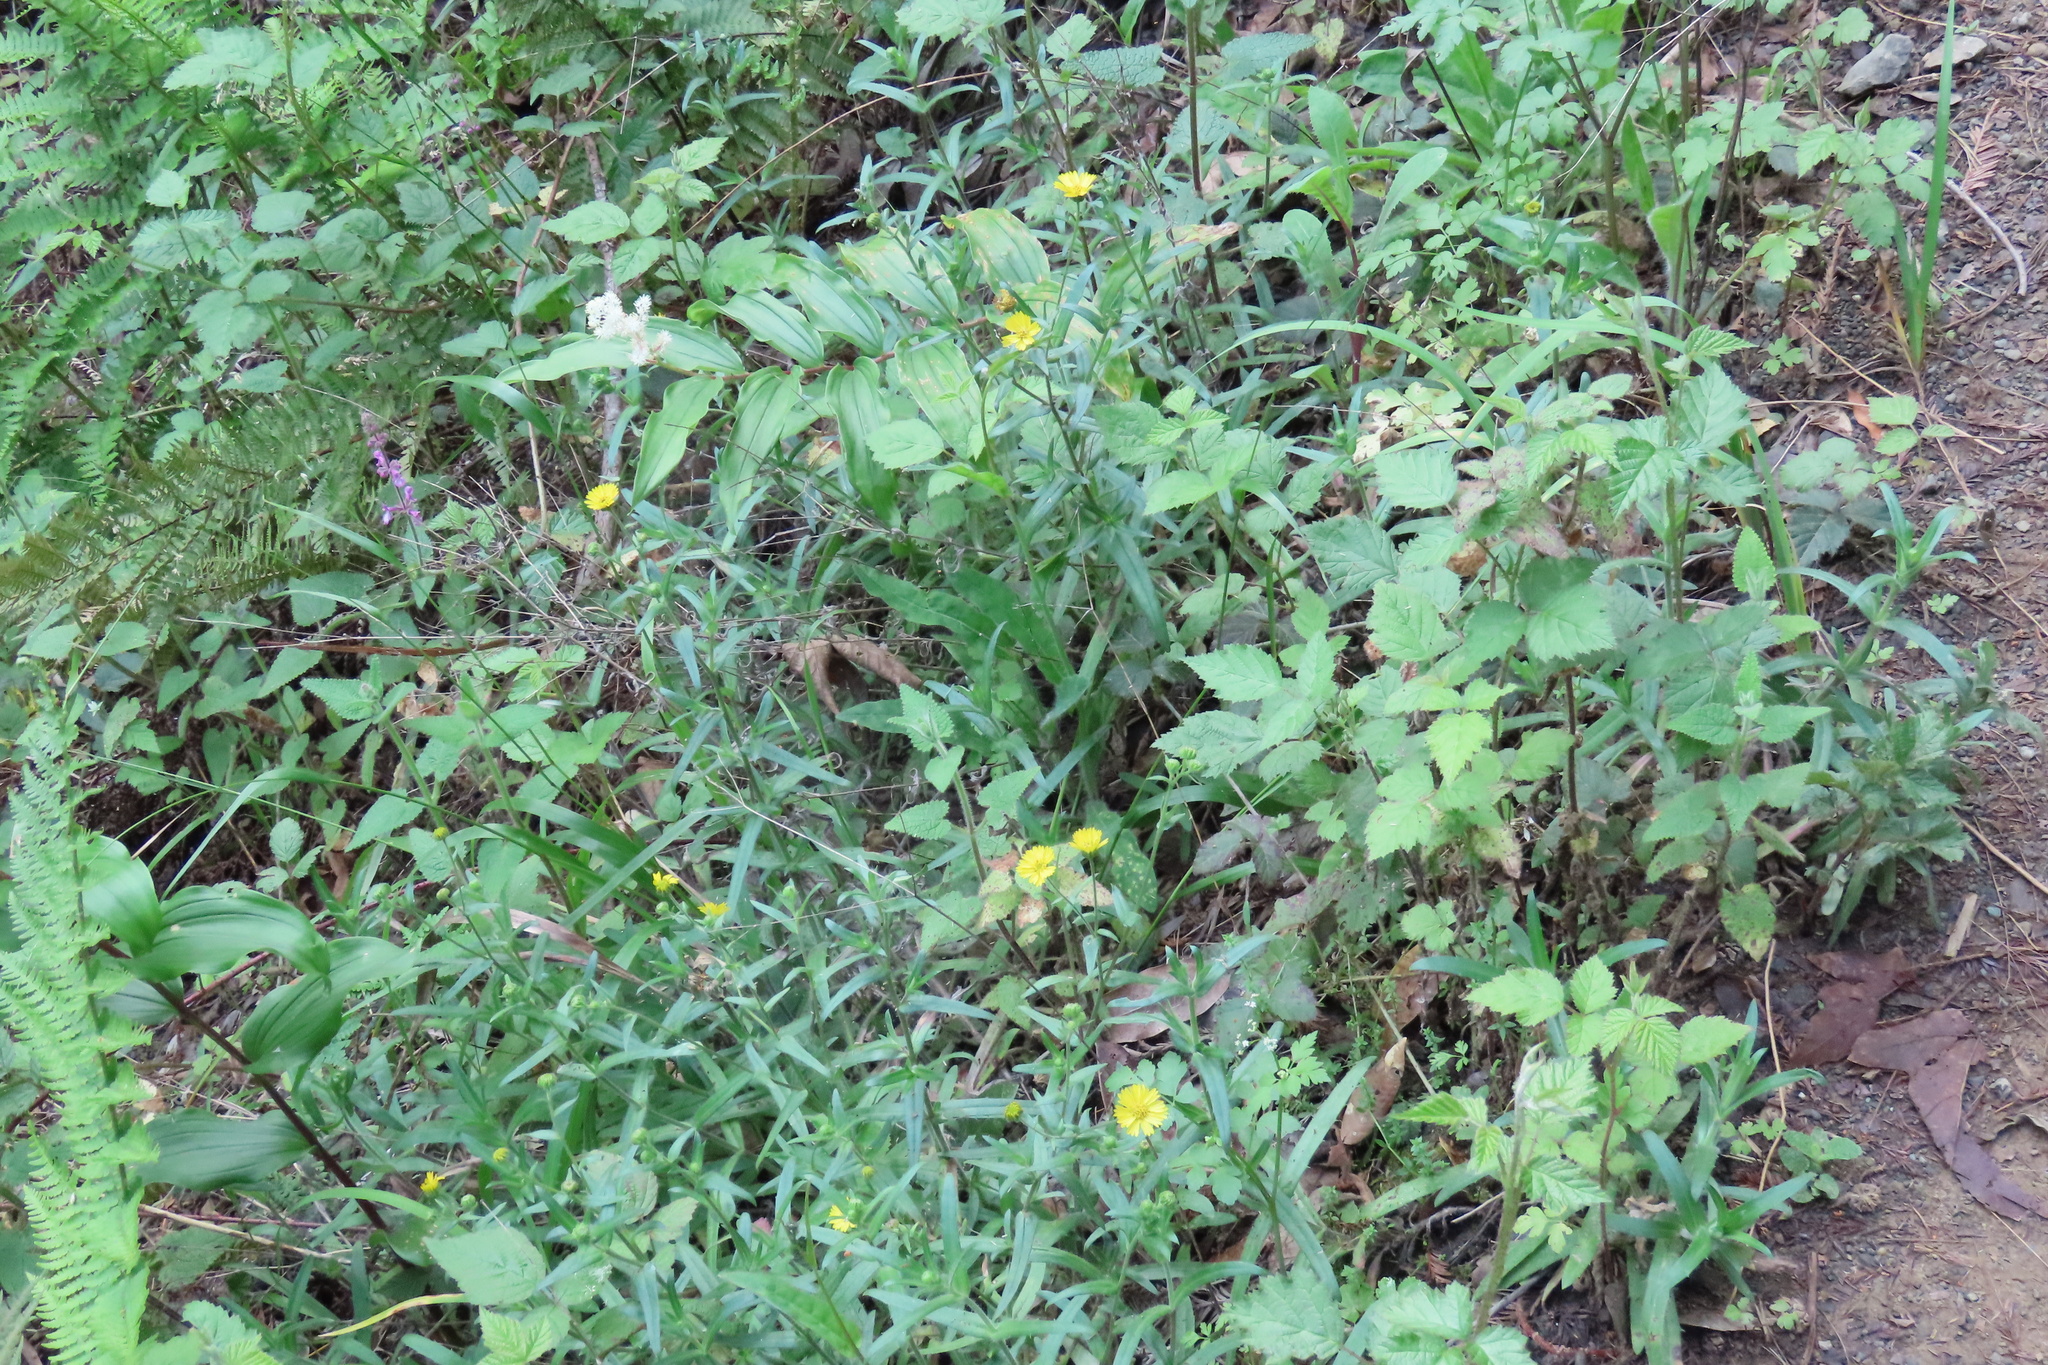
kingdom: Plantae
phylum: Tracheophyta
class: Magnoliopsida
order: Asterales
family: Asteraceae
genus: Anisocarpus
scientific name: Anisocarpus madioides
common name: Woodland madia
